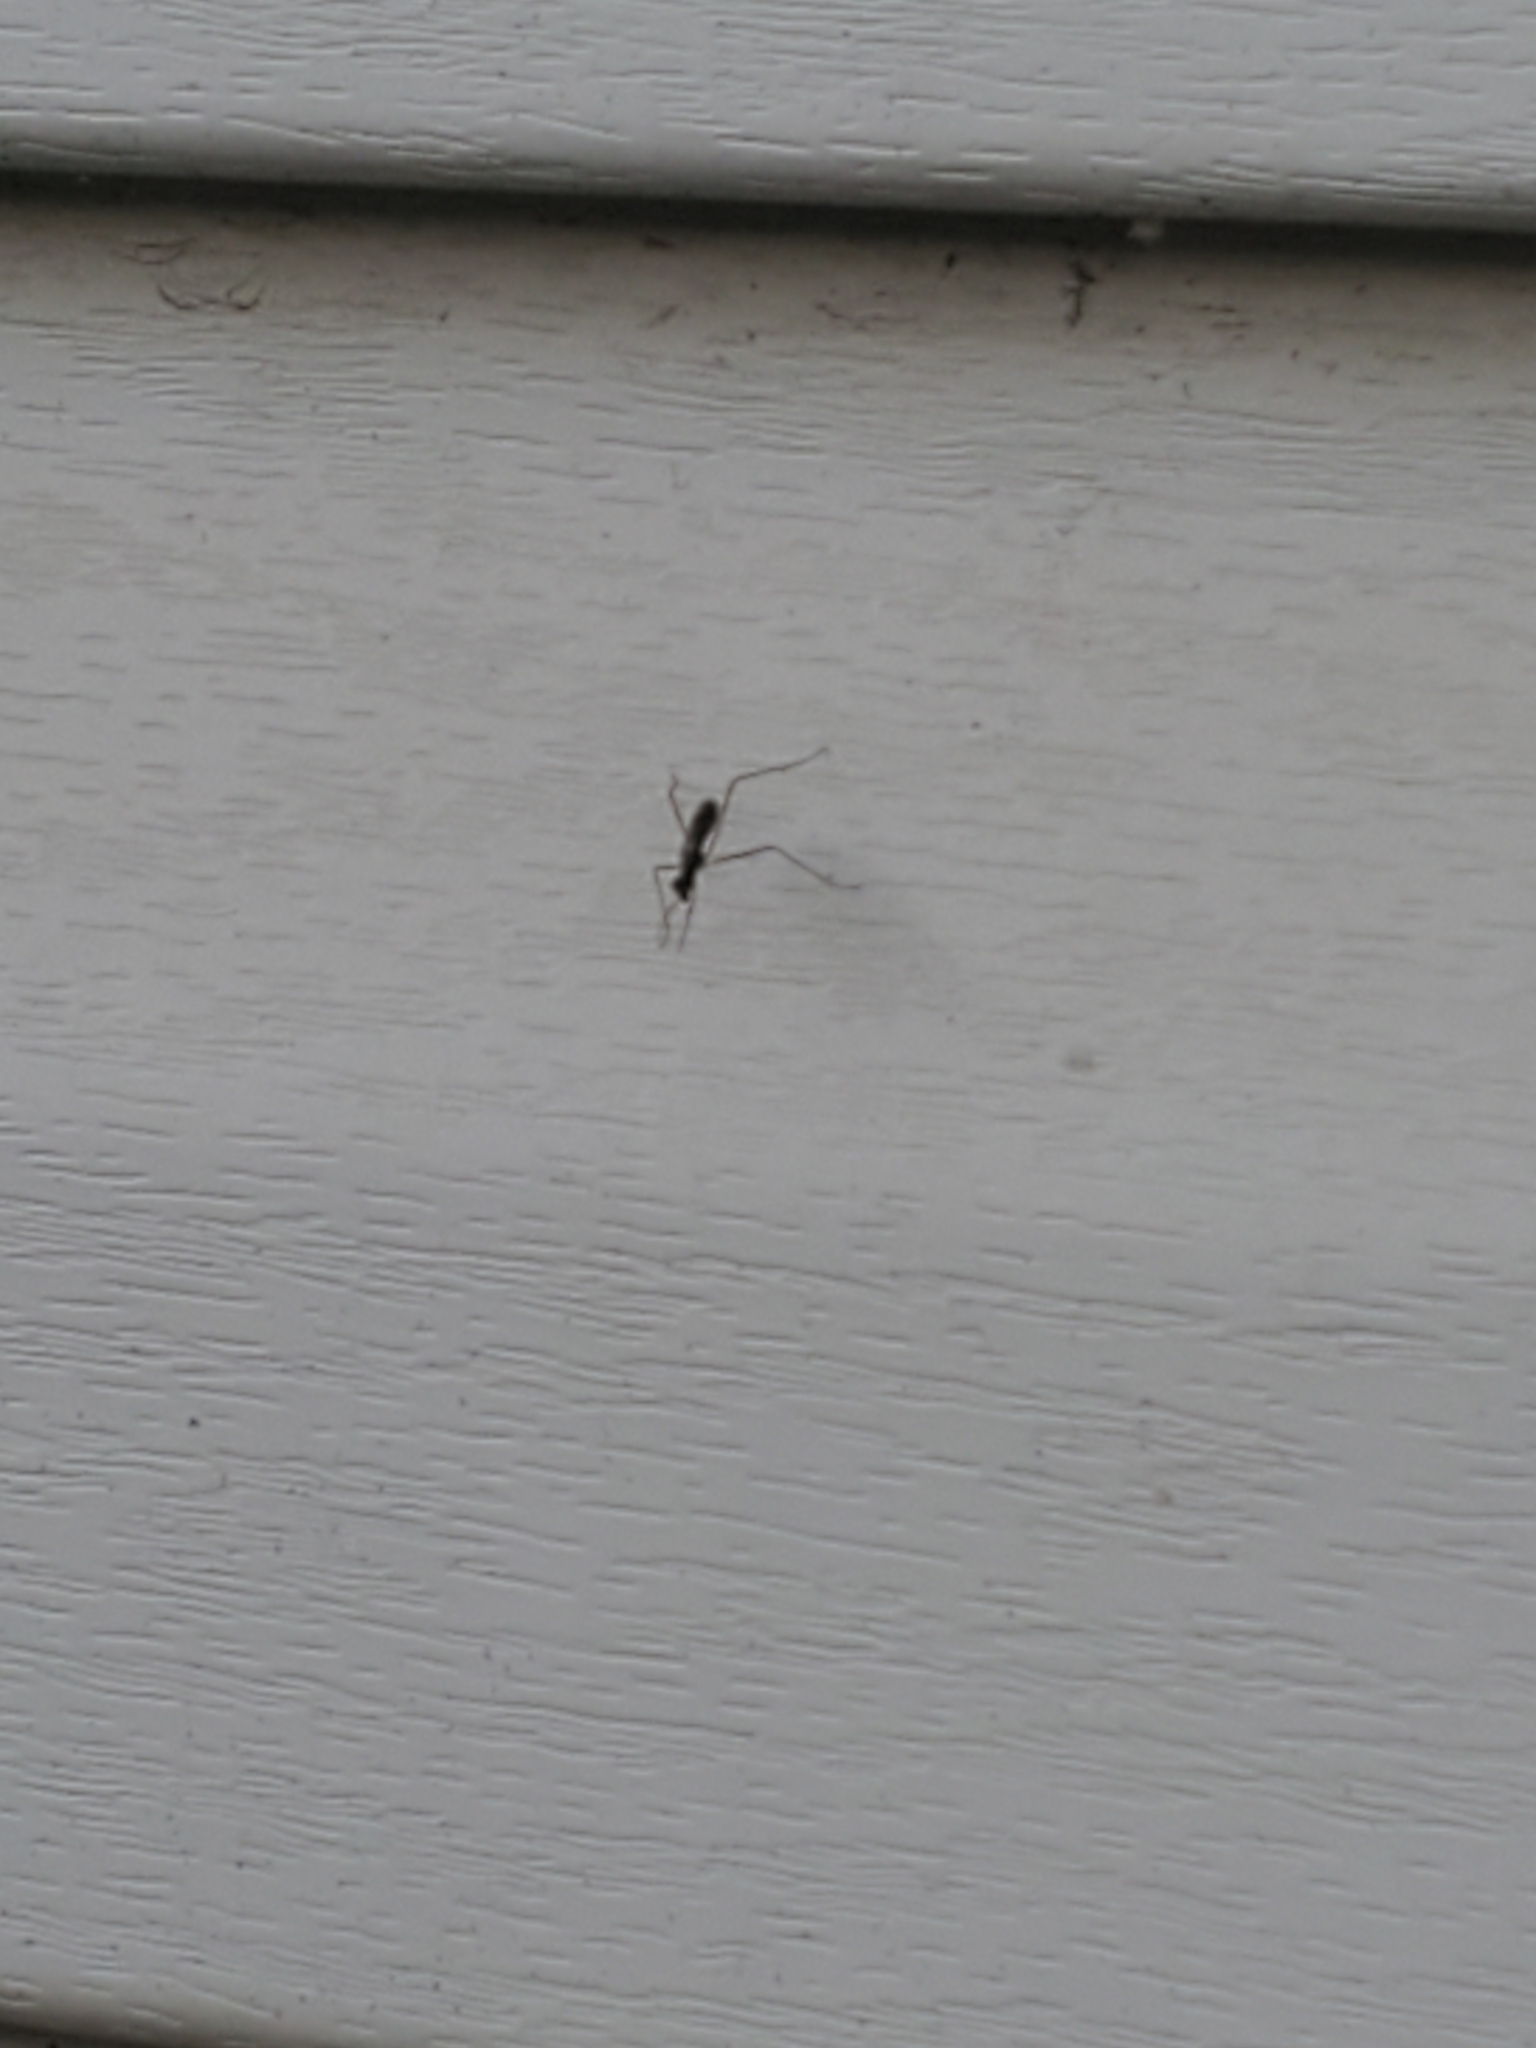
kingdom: Animalia
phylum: Arthropoda
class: Insecta
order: Diptera
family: Micropezidae
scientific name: Micropezidae
